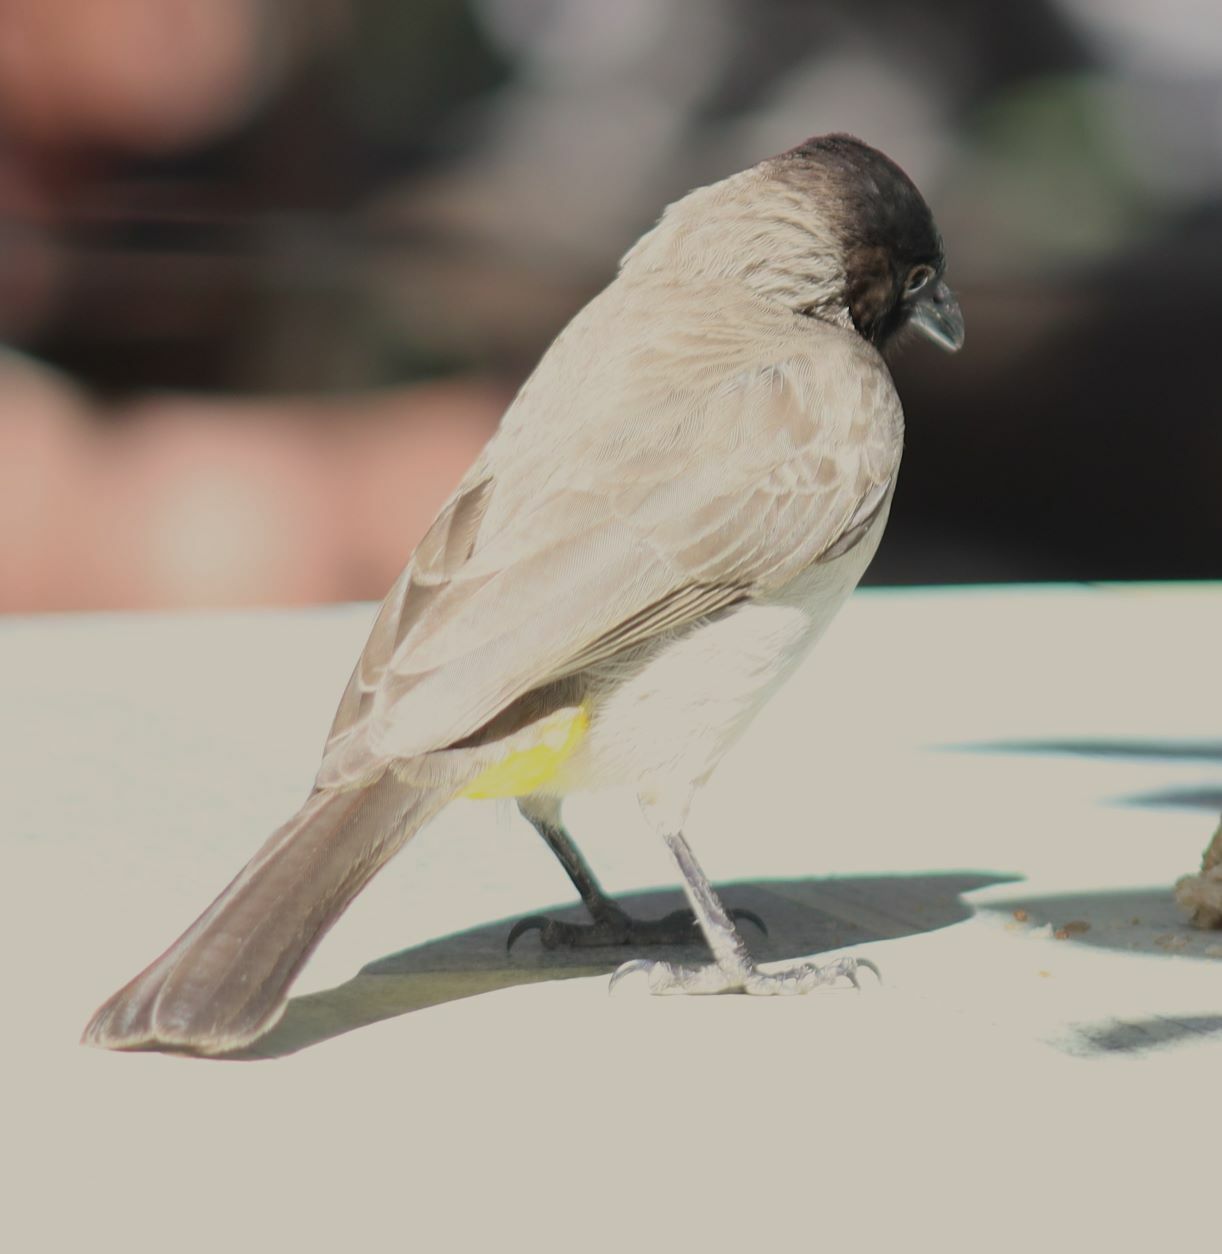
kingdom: Animalia
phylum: Chordata
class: Aves
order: Passeriformes
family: Pycnonotidae
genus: Pycnonotus
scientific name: Pycnonotus barbatus
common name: Common bulbul
